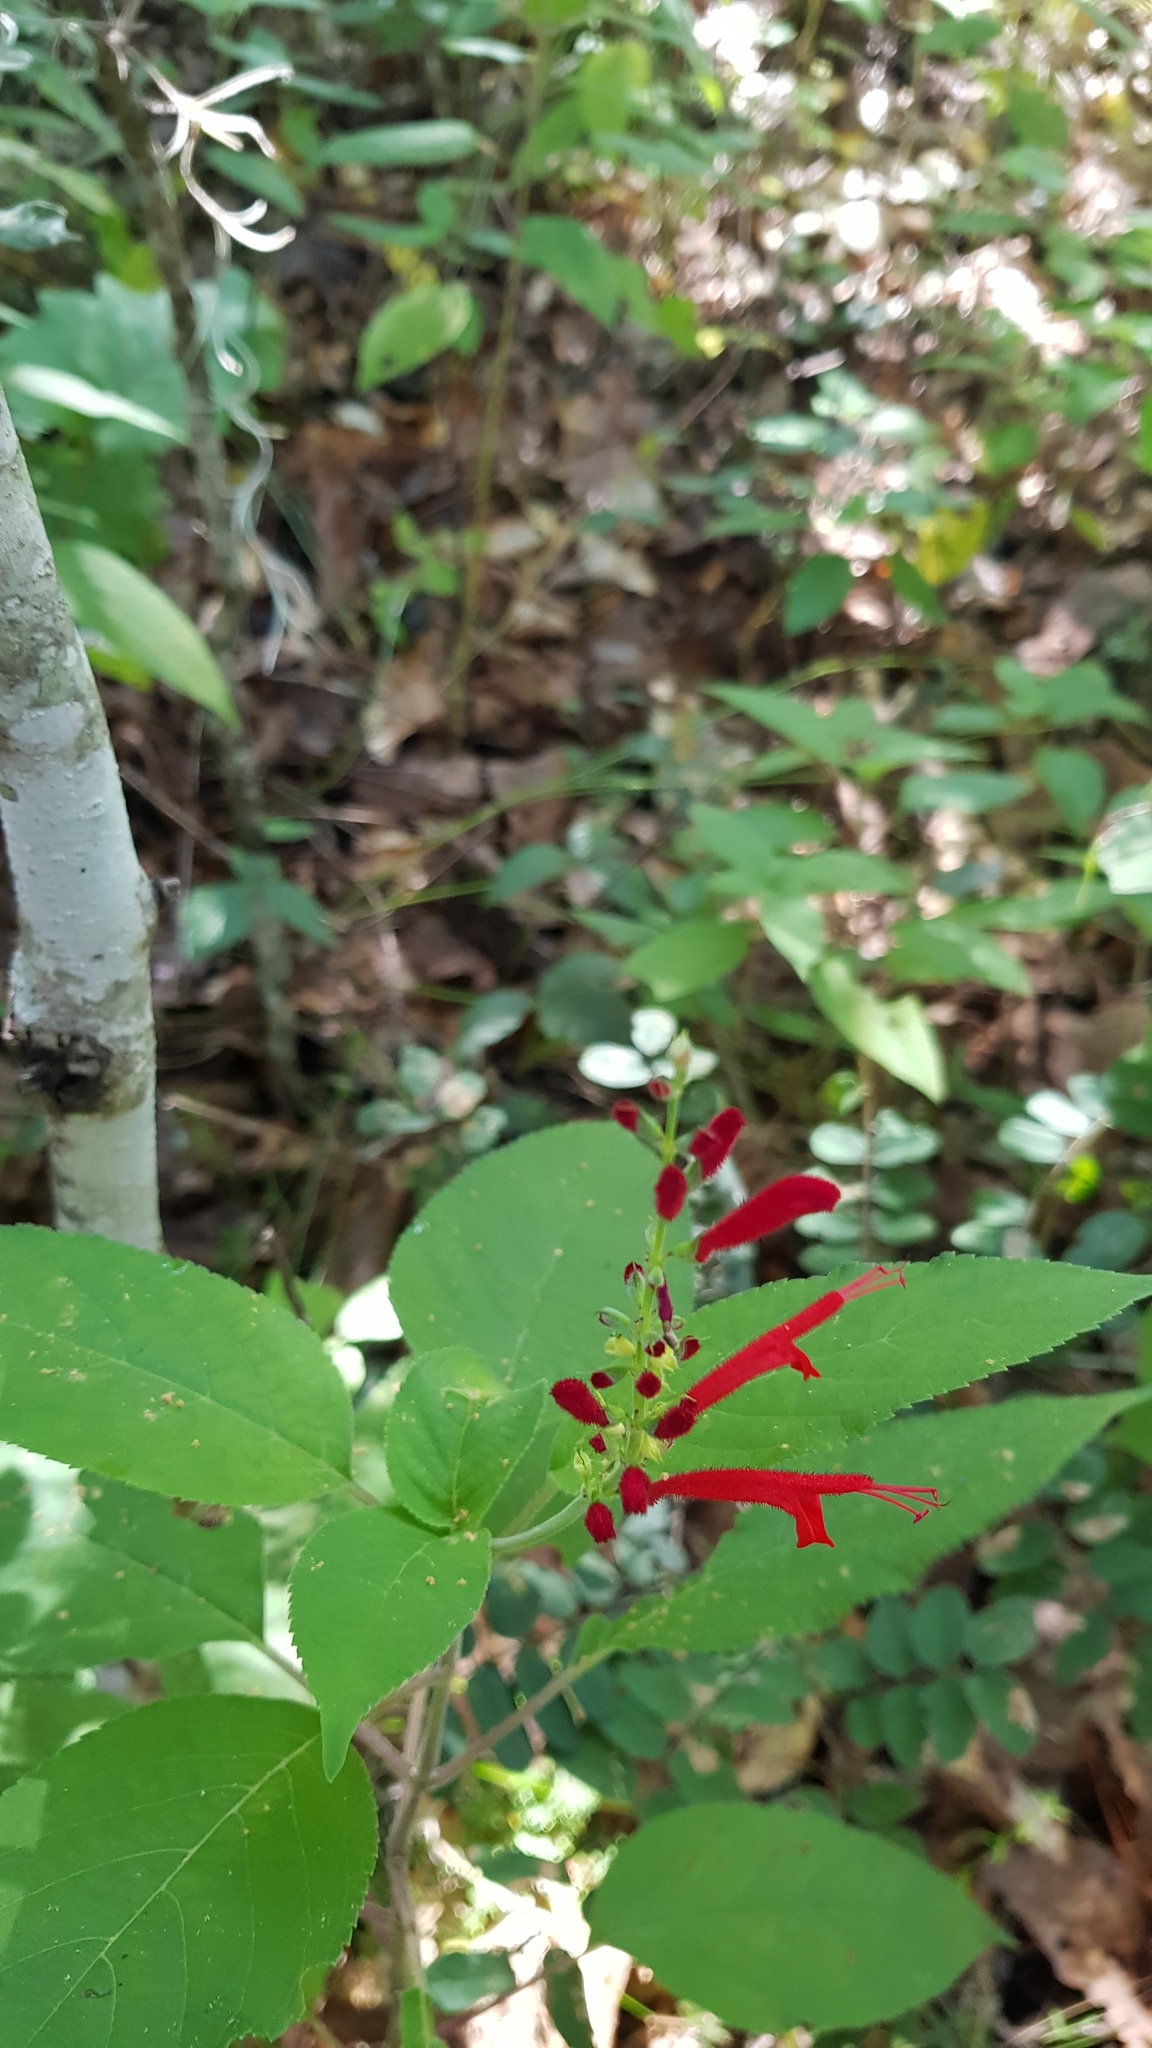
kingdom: Plantae
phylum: Tracheophyta
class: Magnoliopsida
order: Lamiales
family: Lamiaceae
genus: Salvia
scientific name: Salvia cinnabarina
